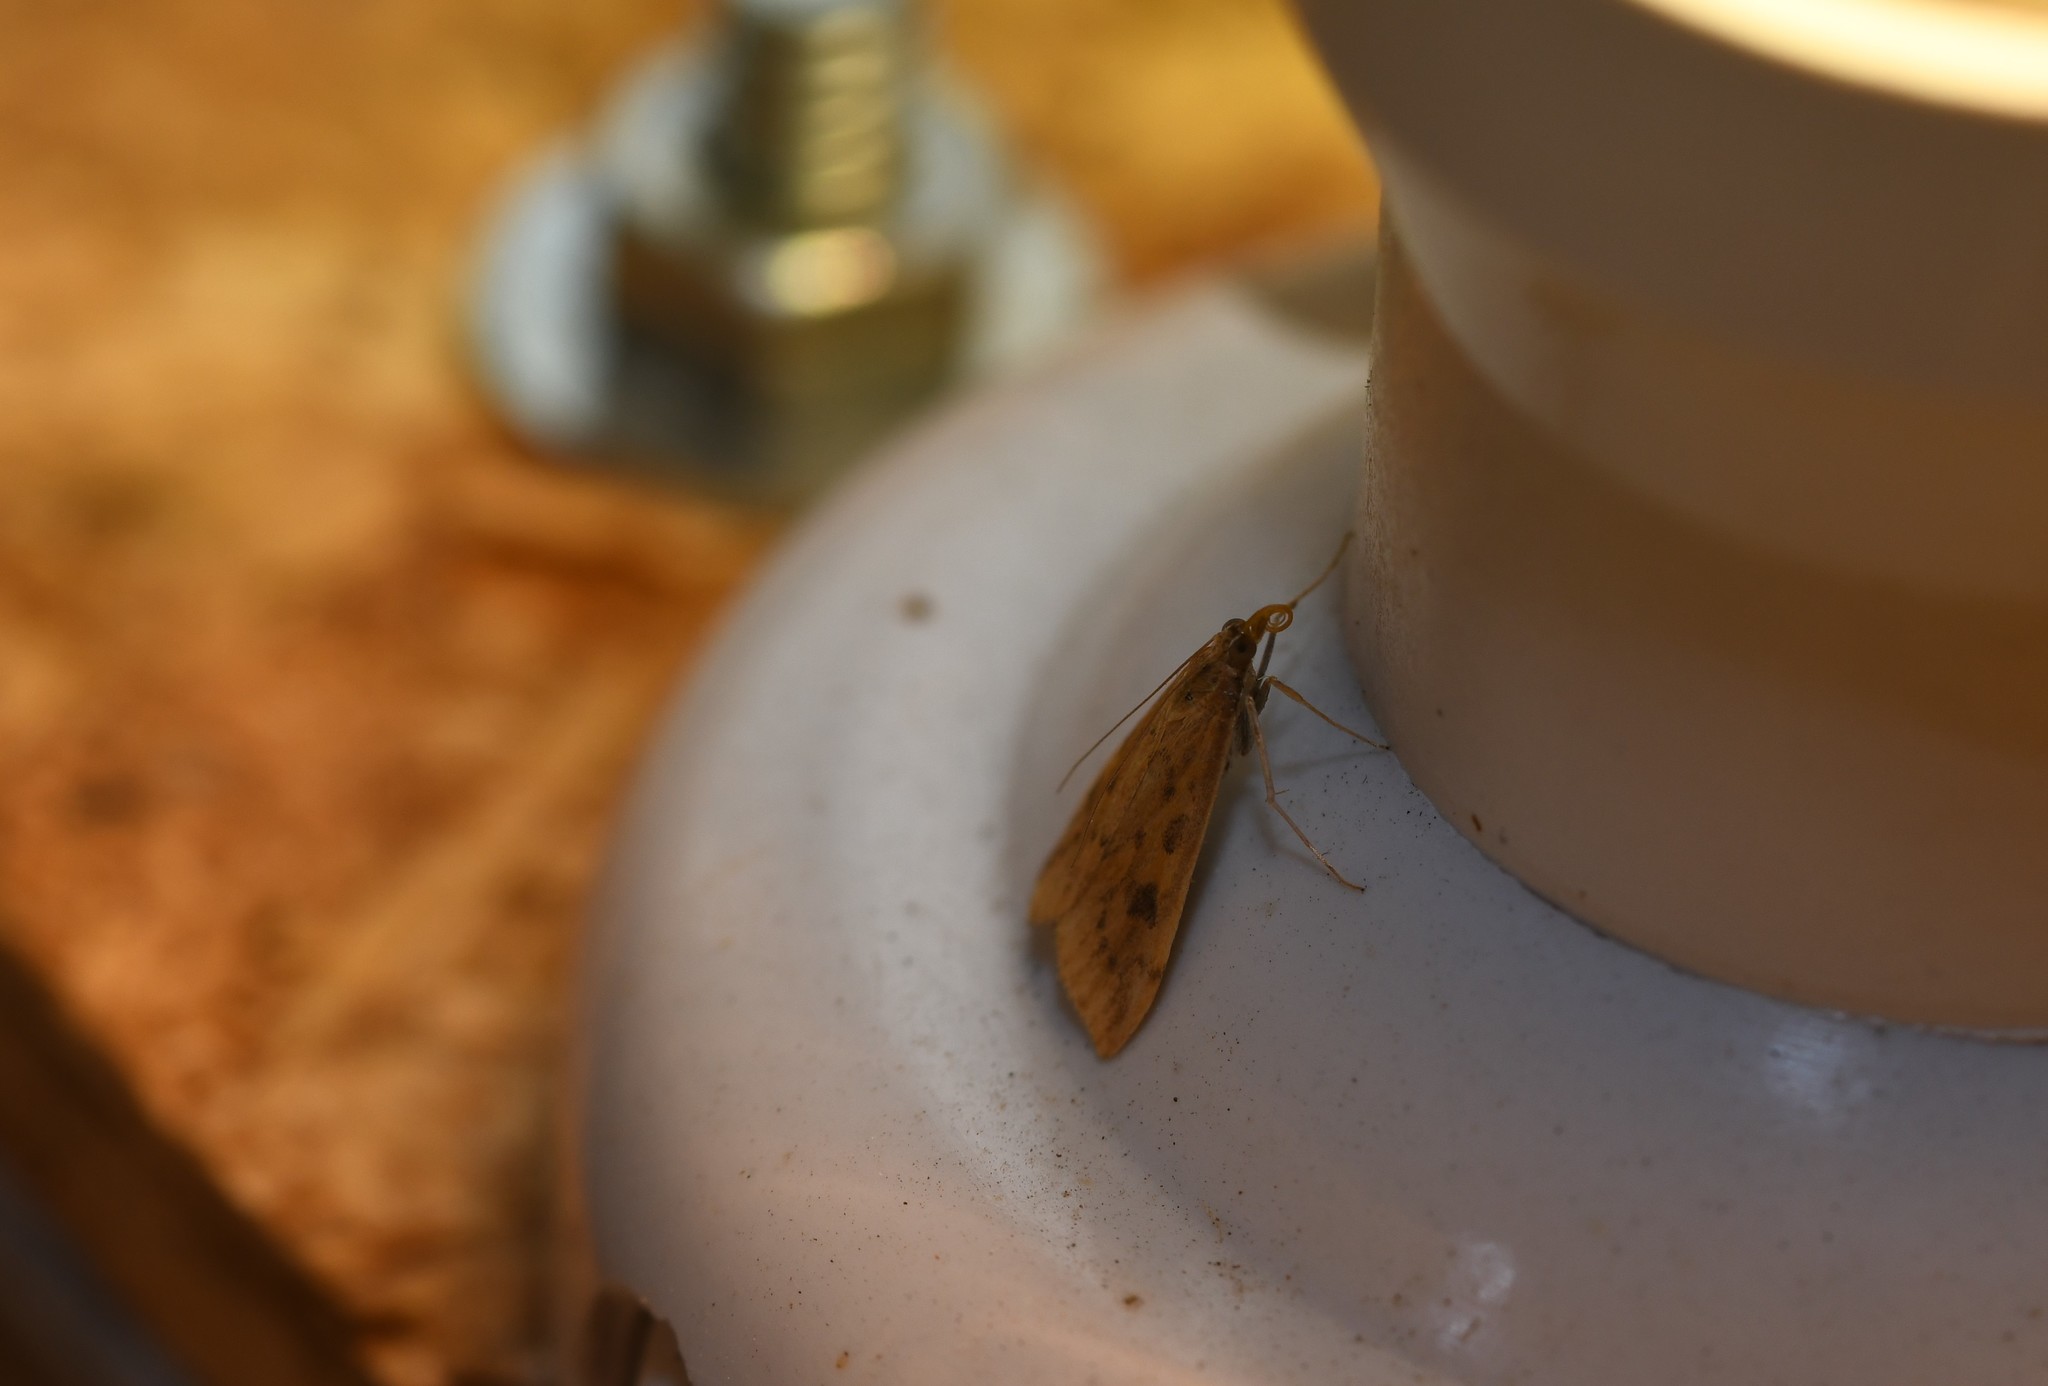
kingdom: Animalia
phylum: Arthropoda
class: Insecta
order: Lepidoptera
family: Crambidae
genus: Udea
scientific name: Udea ferrugalis
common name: Rusty dot
